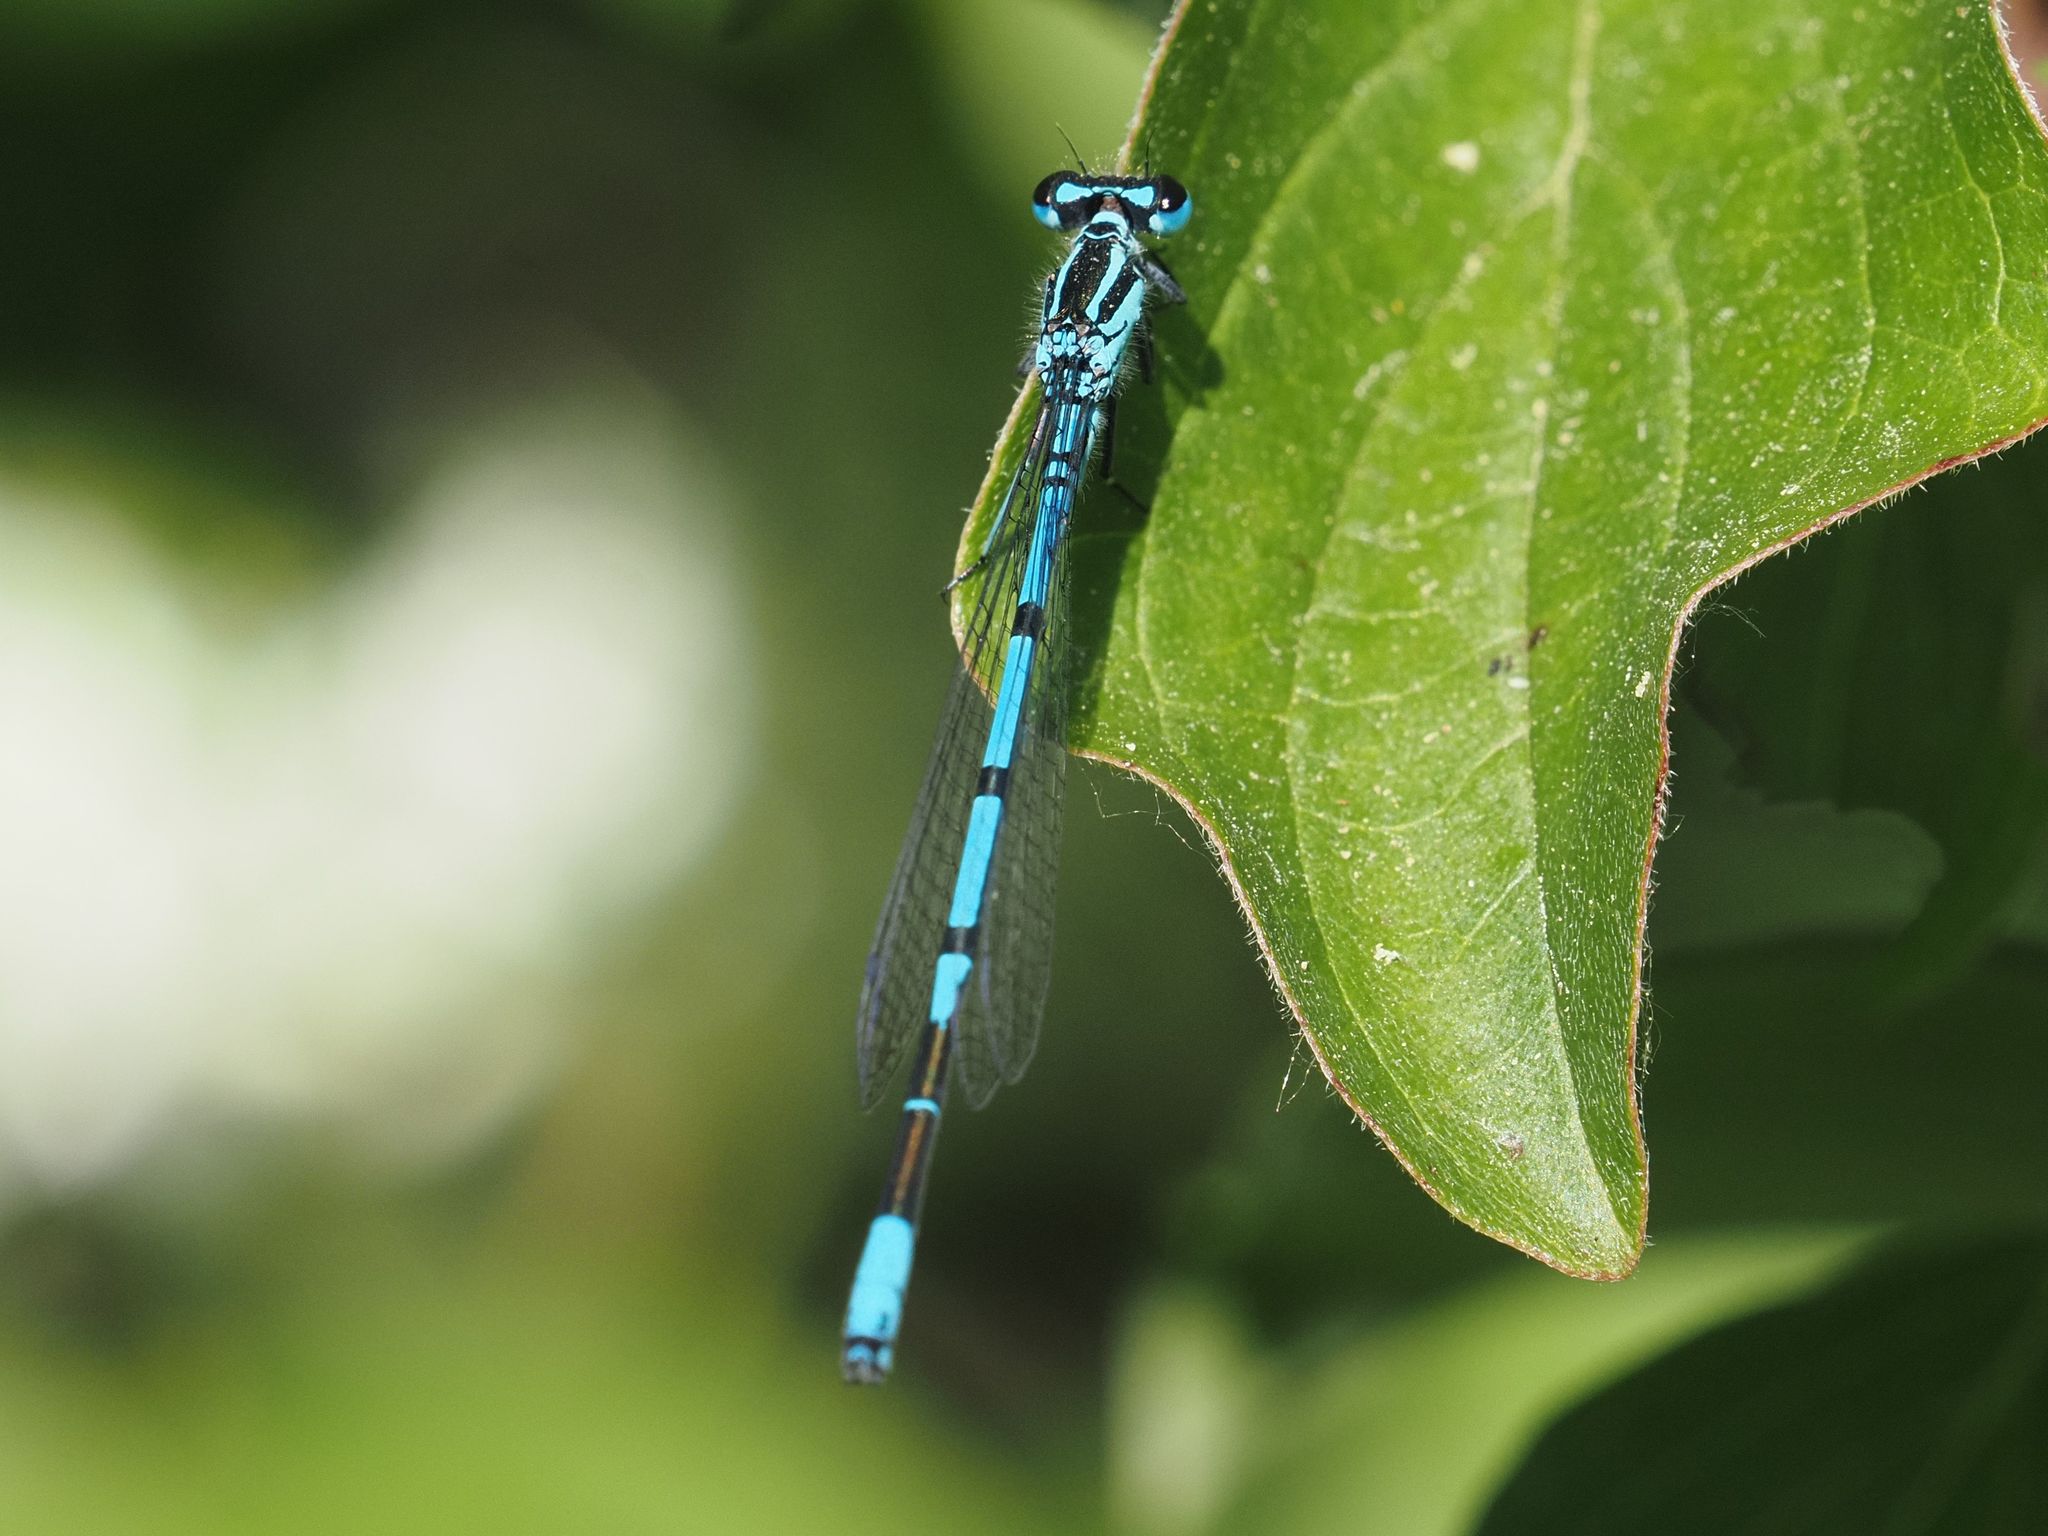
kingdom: Animalia
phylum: Arthropoda
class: Insecta
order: Odonata
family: Coenagrionidae
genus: Coenagrion
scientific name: Coenagrion puella
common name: Azure damselfly
